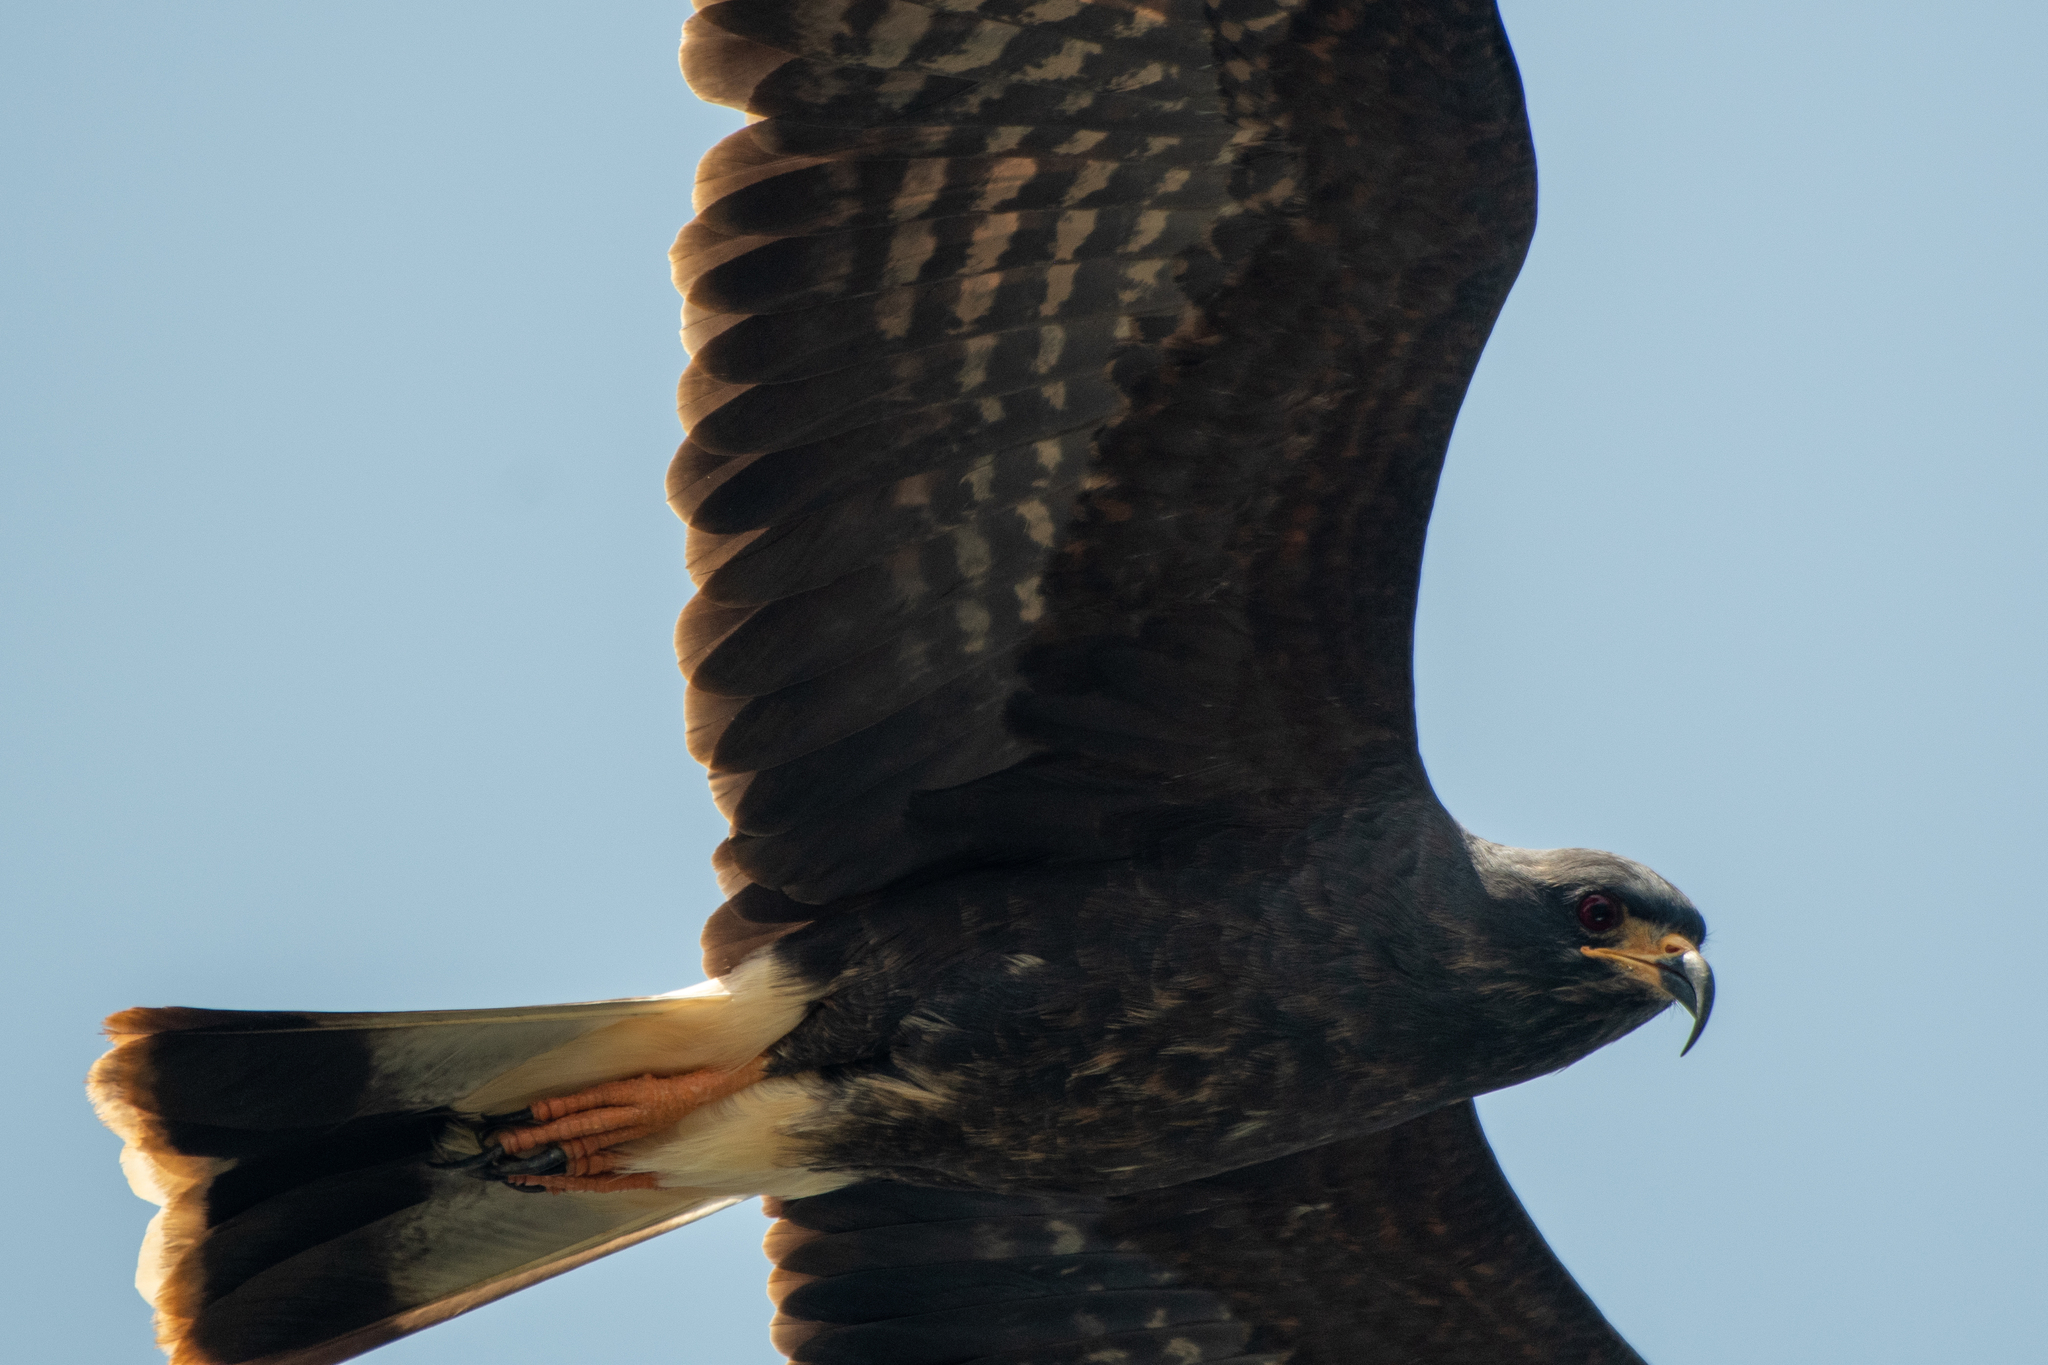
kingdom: Animalia
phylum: Chordata
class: Aves
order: Accipitriformes
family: Accipitridae
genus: Rostrhamus
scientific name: Rostrhamus sociabilis
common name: Snail kite
